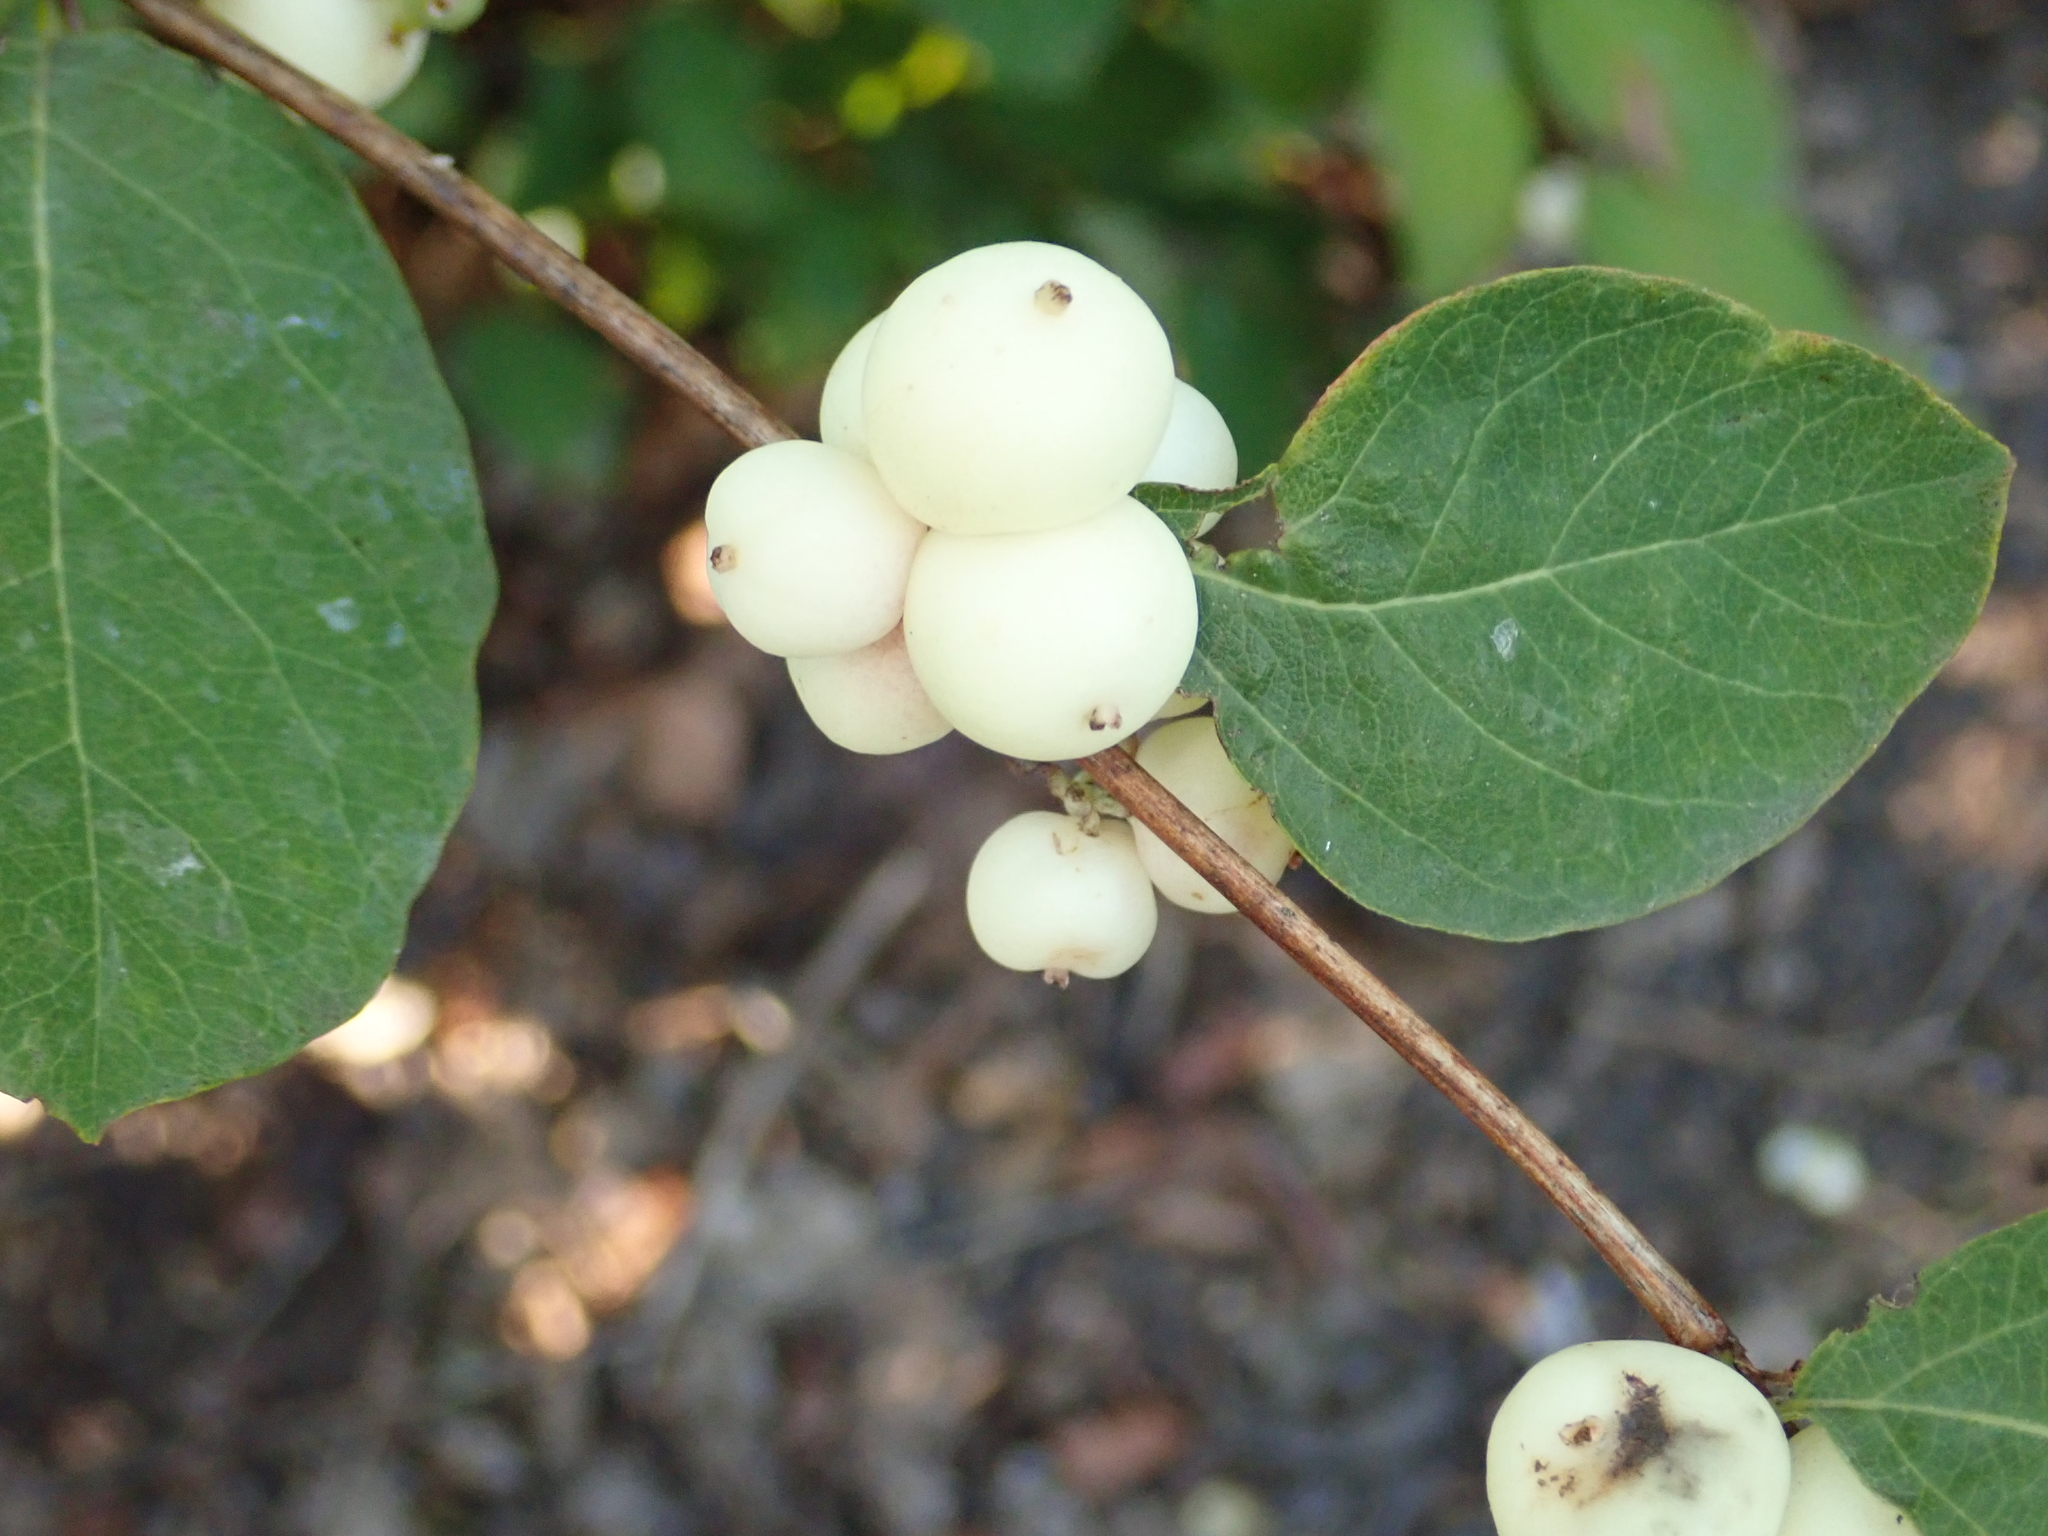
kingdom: Plantae
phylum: Tracheophyta
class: Magnoliopsida
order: Dipsacales
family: Caprifoliaceae
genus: Symphoricarpos
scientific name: Symphoricarpos albus
